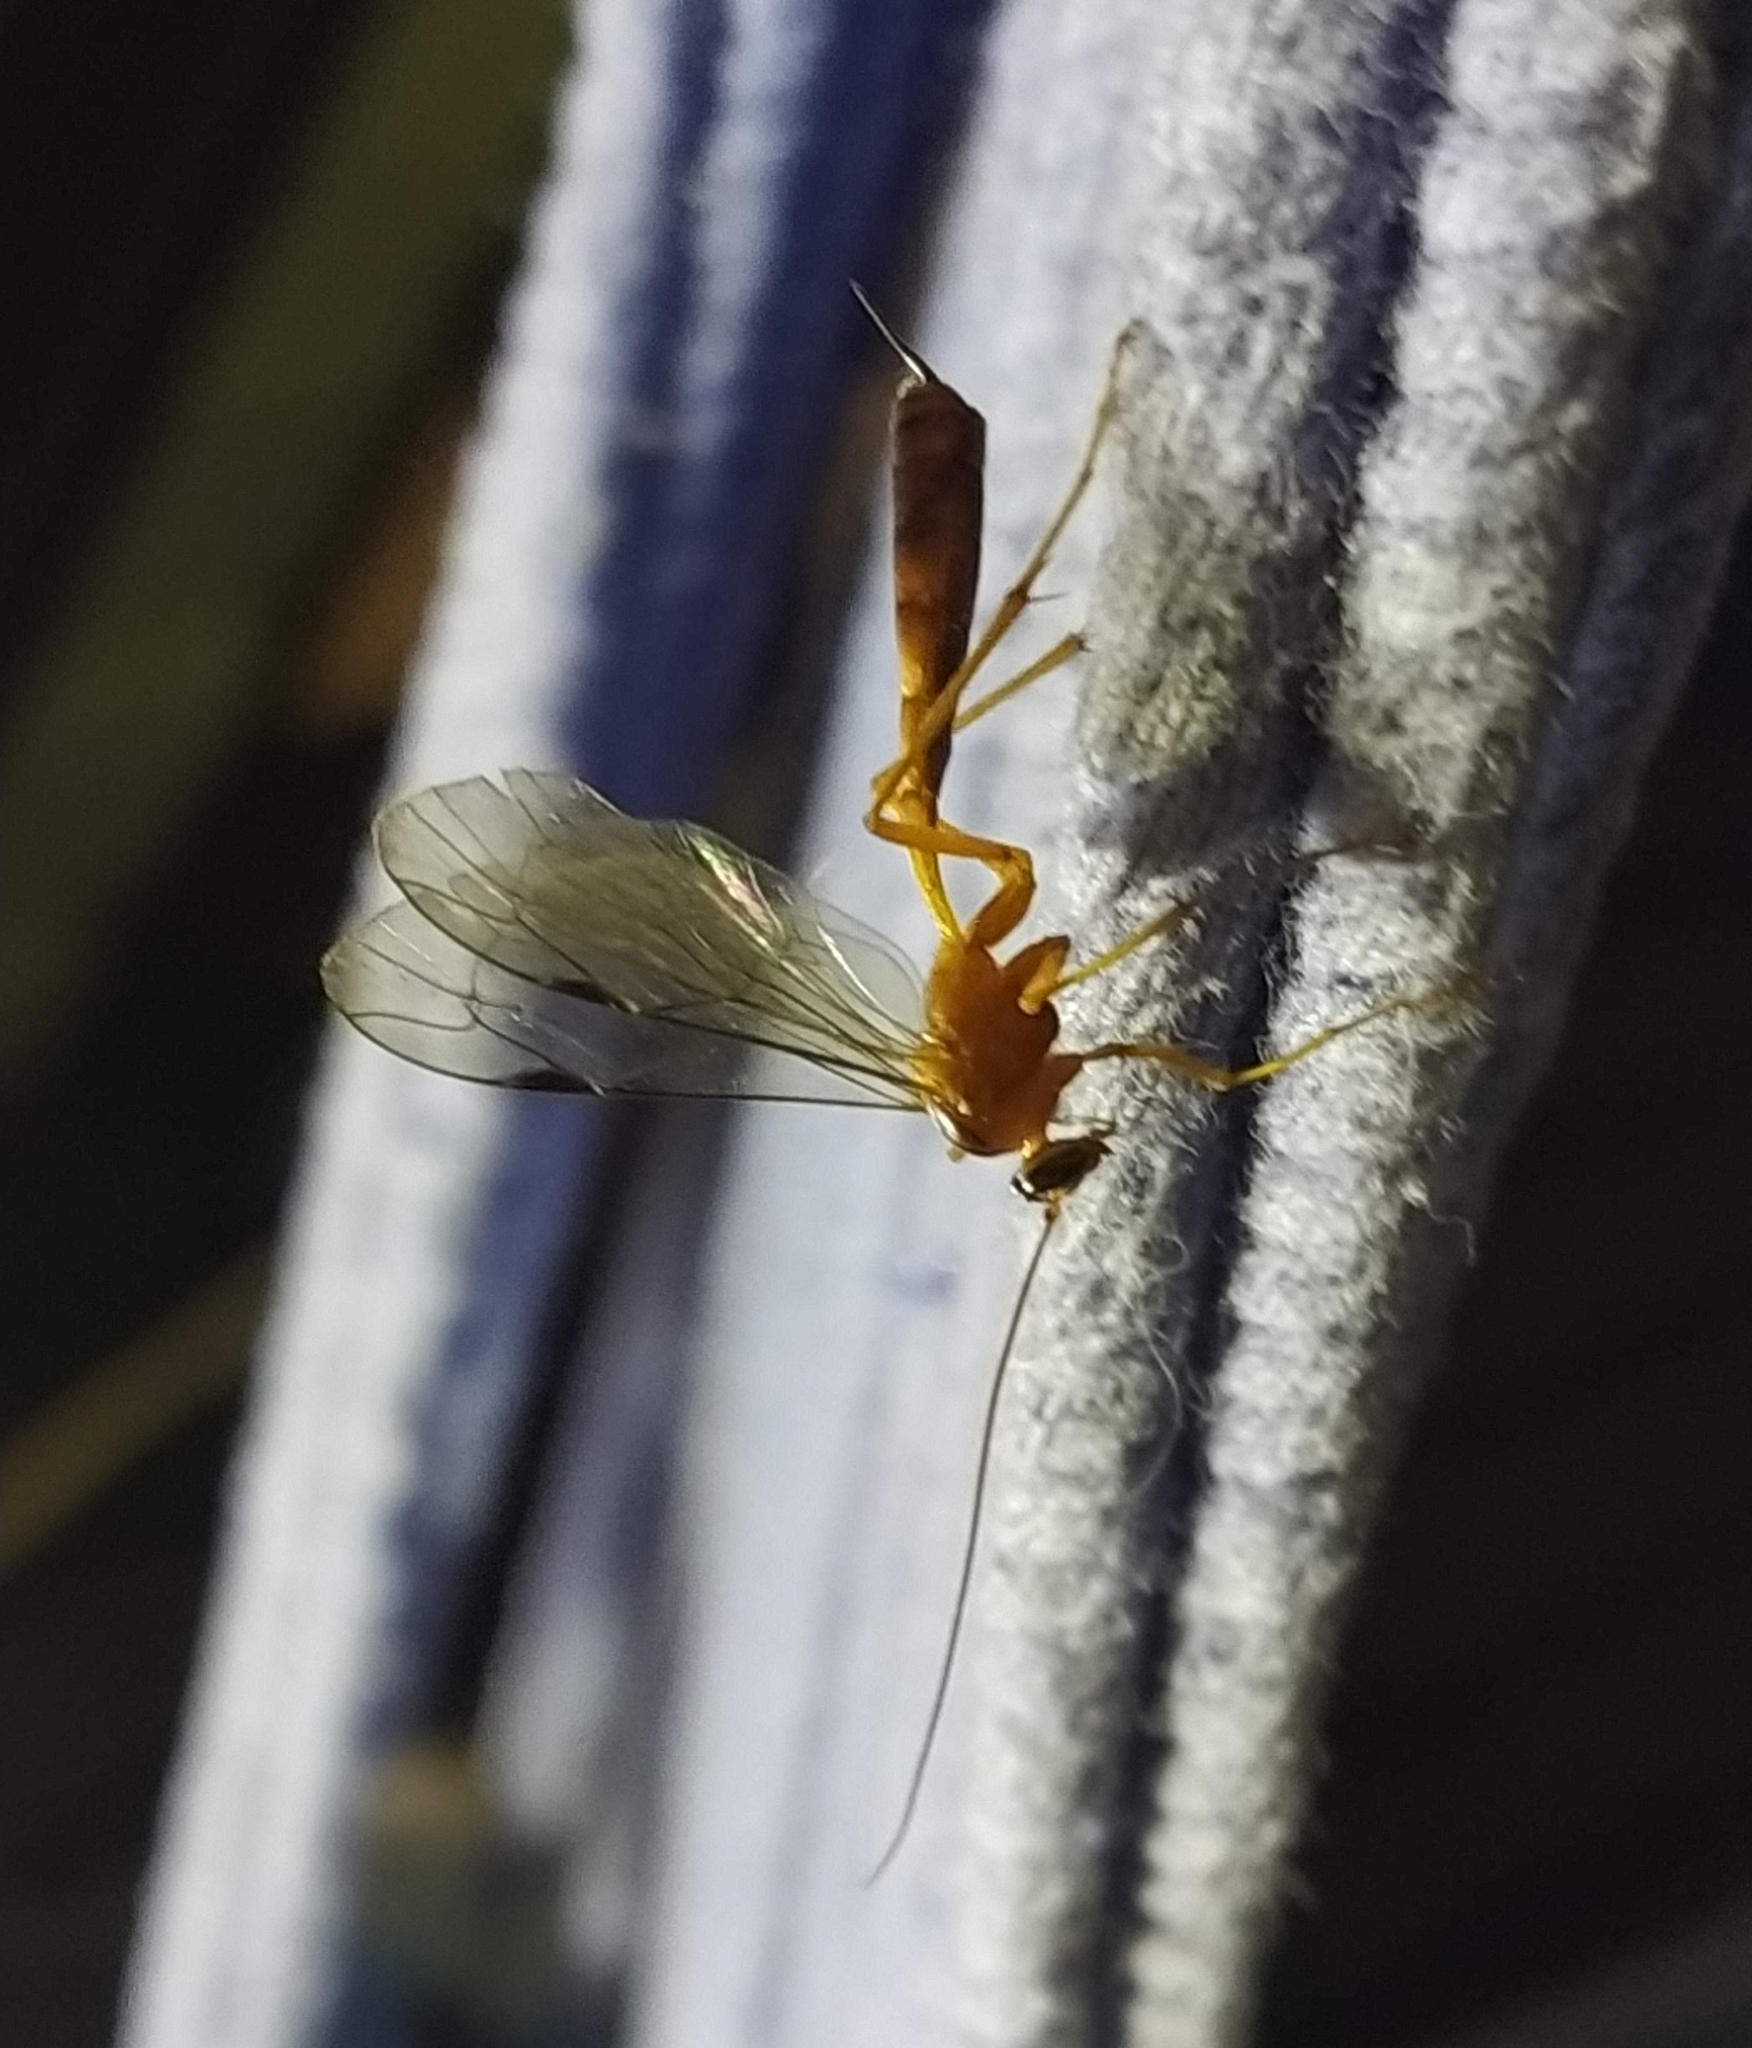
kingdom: Animalia
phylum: Arthropoda
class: Insecta
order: Hymenoptera
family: Ichneumonidae
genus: Netelia
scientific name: Netelia ephippiata
